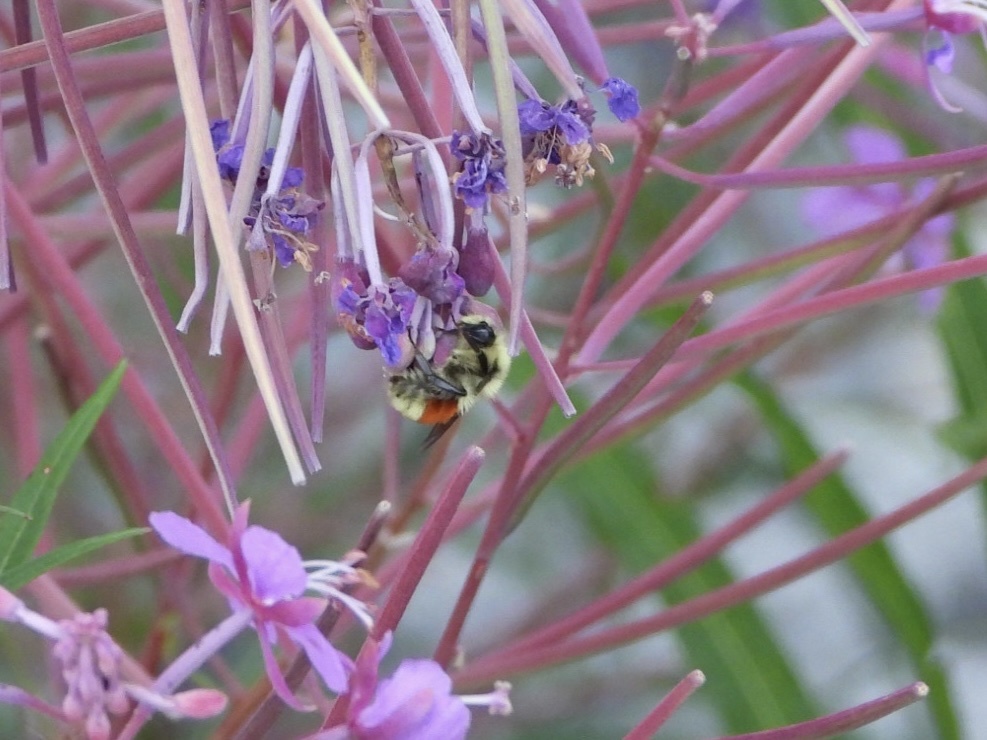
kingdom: Animalia
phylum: Arthropoda
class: Insecta
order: Hymenoptera
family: Apidae
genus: Bombus
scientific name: Bombus huntii
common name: Hunt bumble bee
